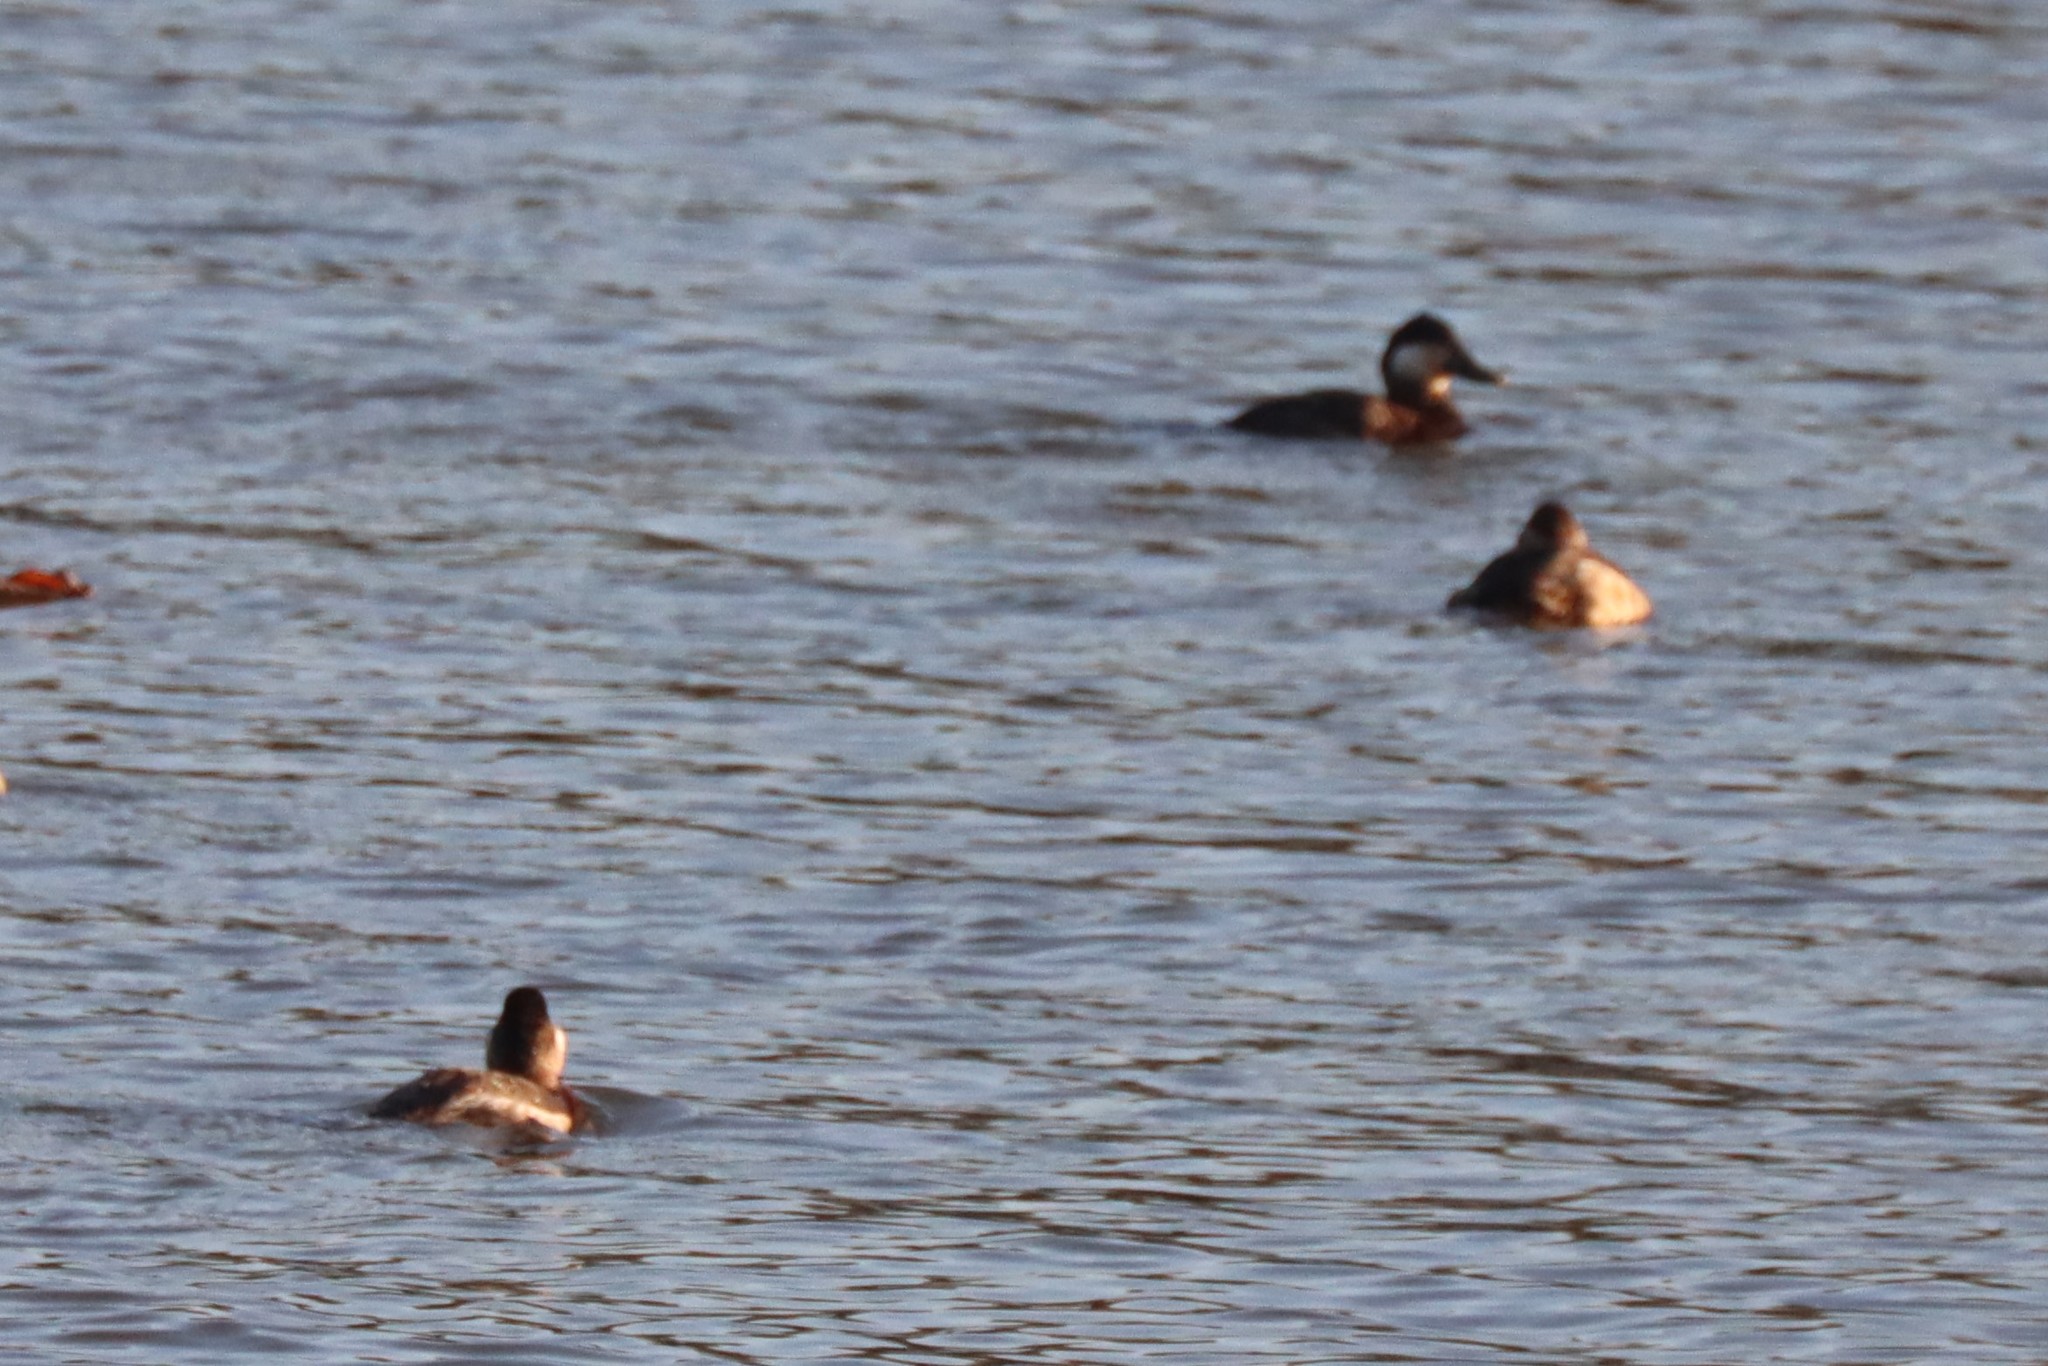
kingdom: Animalia
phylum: Chordata
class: Aves
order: Anseriformes
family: Anatidae
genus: Oxyura
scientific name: Oxyura jamaicensis
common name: Ruddy duck
